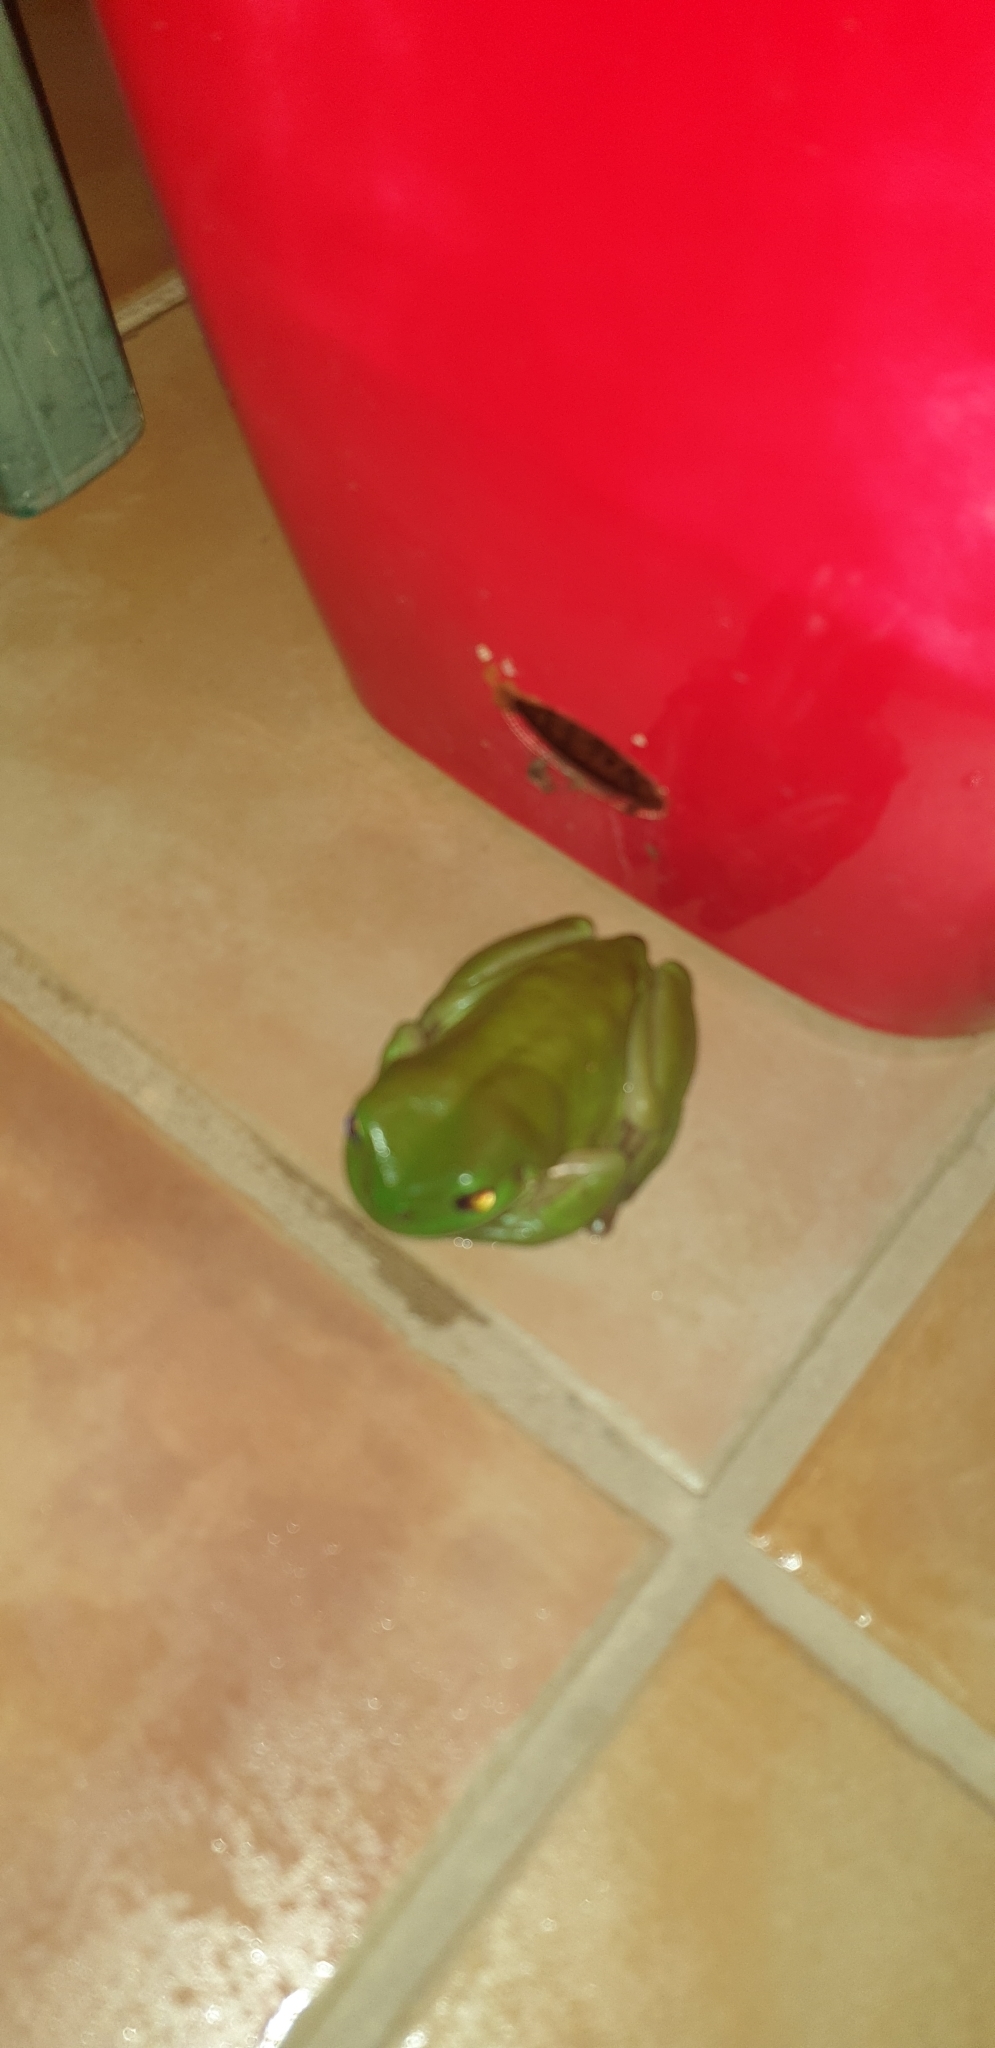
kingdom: Animalia
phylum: Chordata
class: Amphibia
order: Anura
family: Pelodryadidae
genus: Ranoidea
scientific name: Ranoidea caerulea
